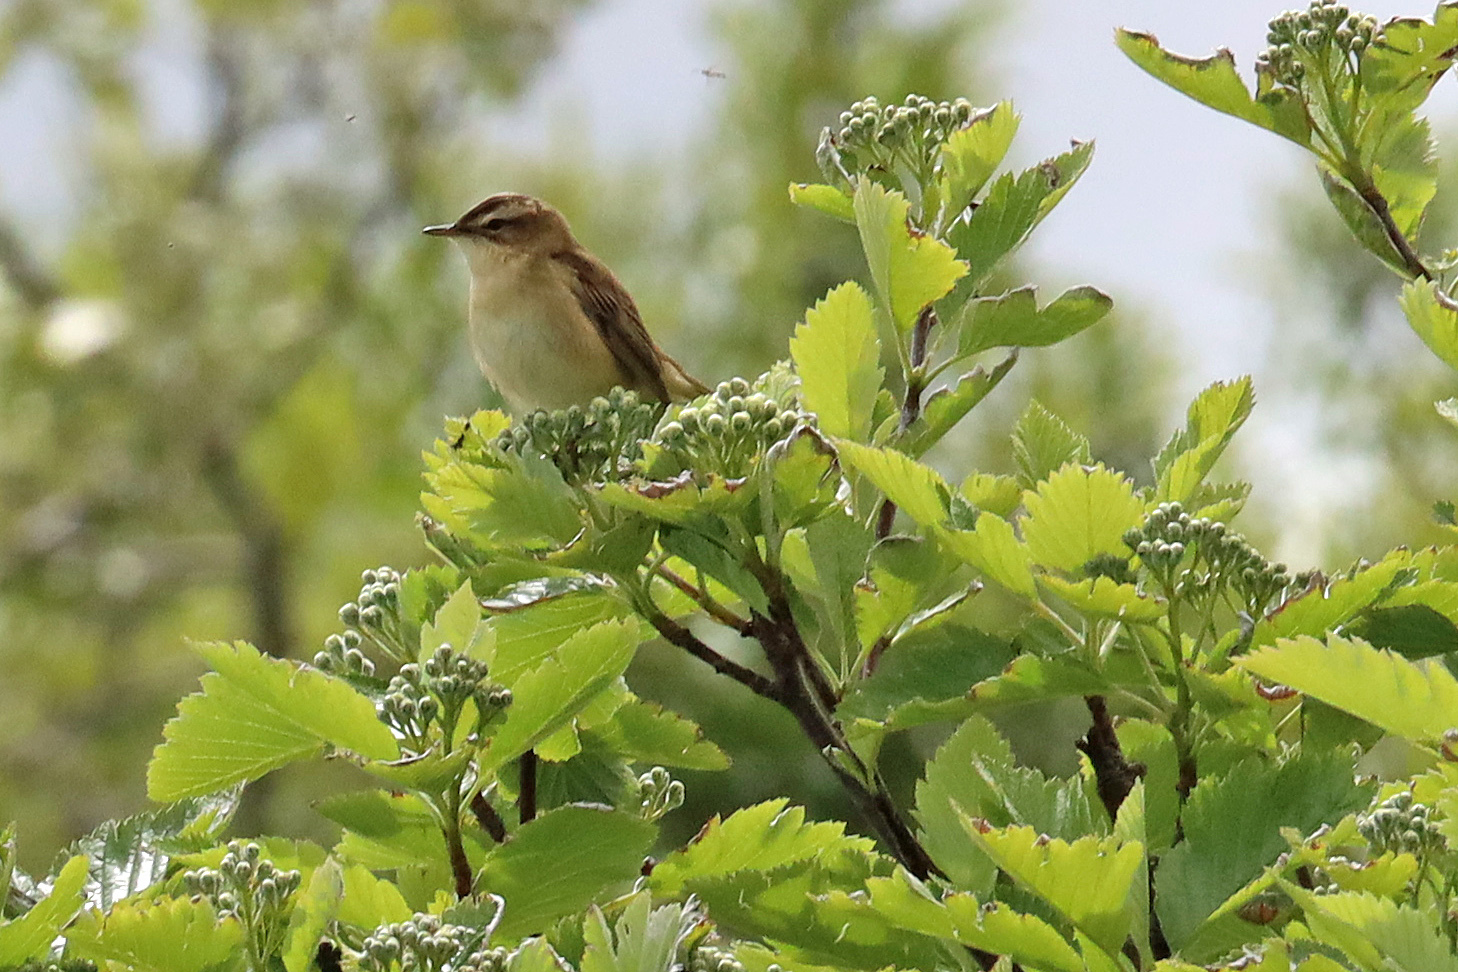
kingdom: Animalia
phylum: Chordata
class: Aves
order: Passeriformes
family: Acrocephalidae
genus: Acrocephalus
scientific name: Acrocephalus schoenobaenus
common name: Sedge warbler
